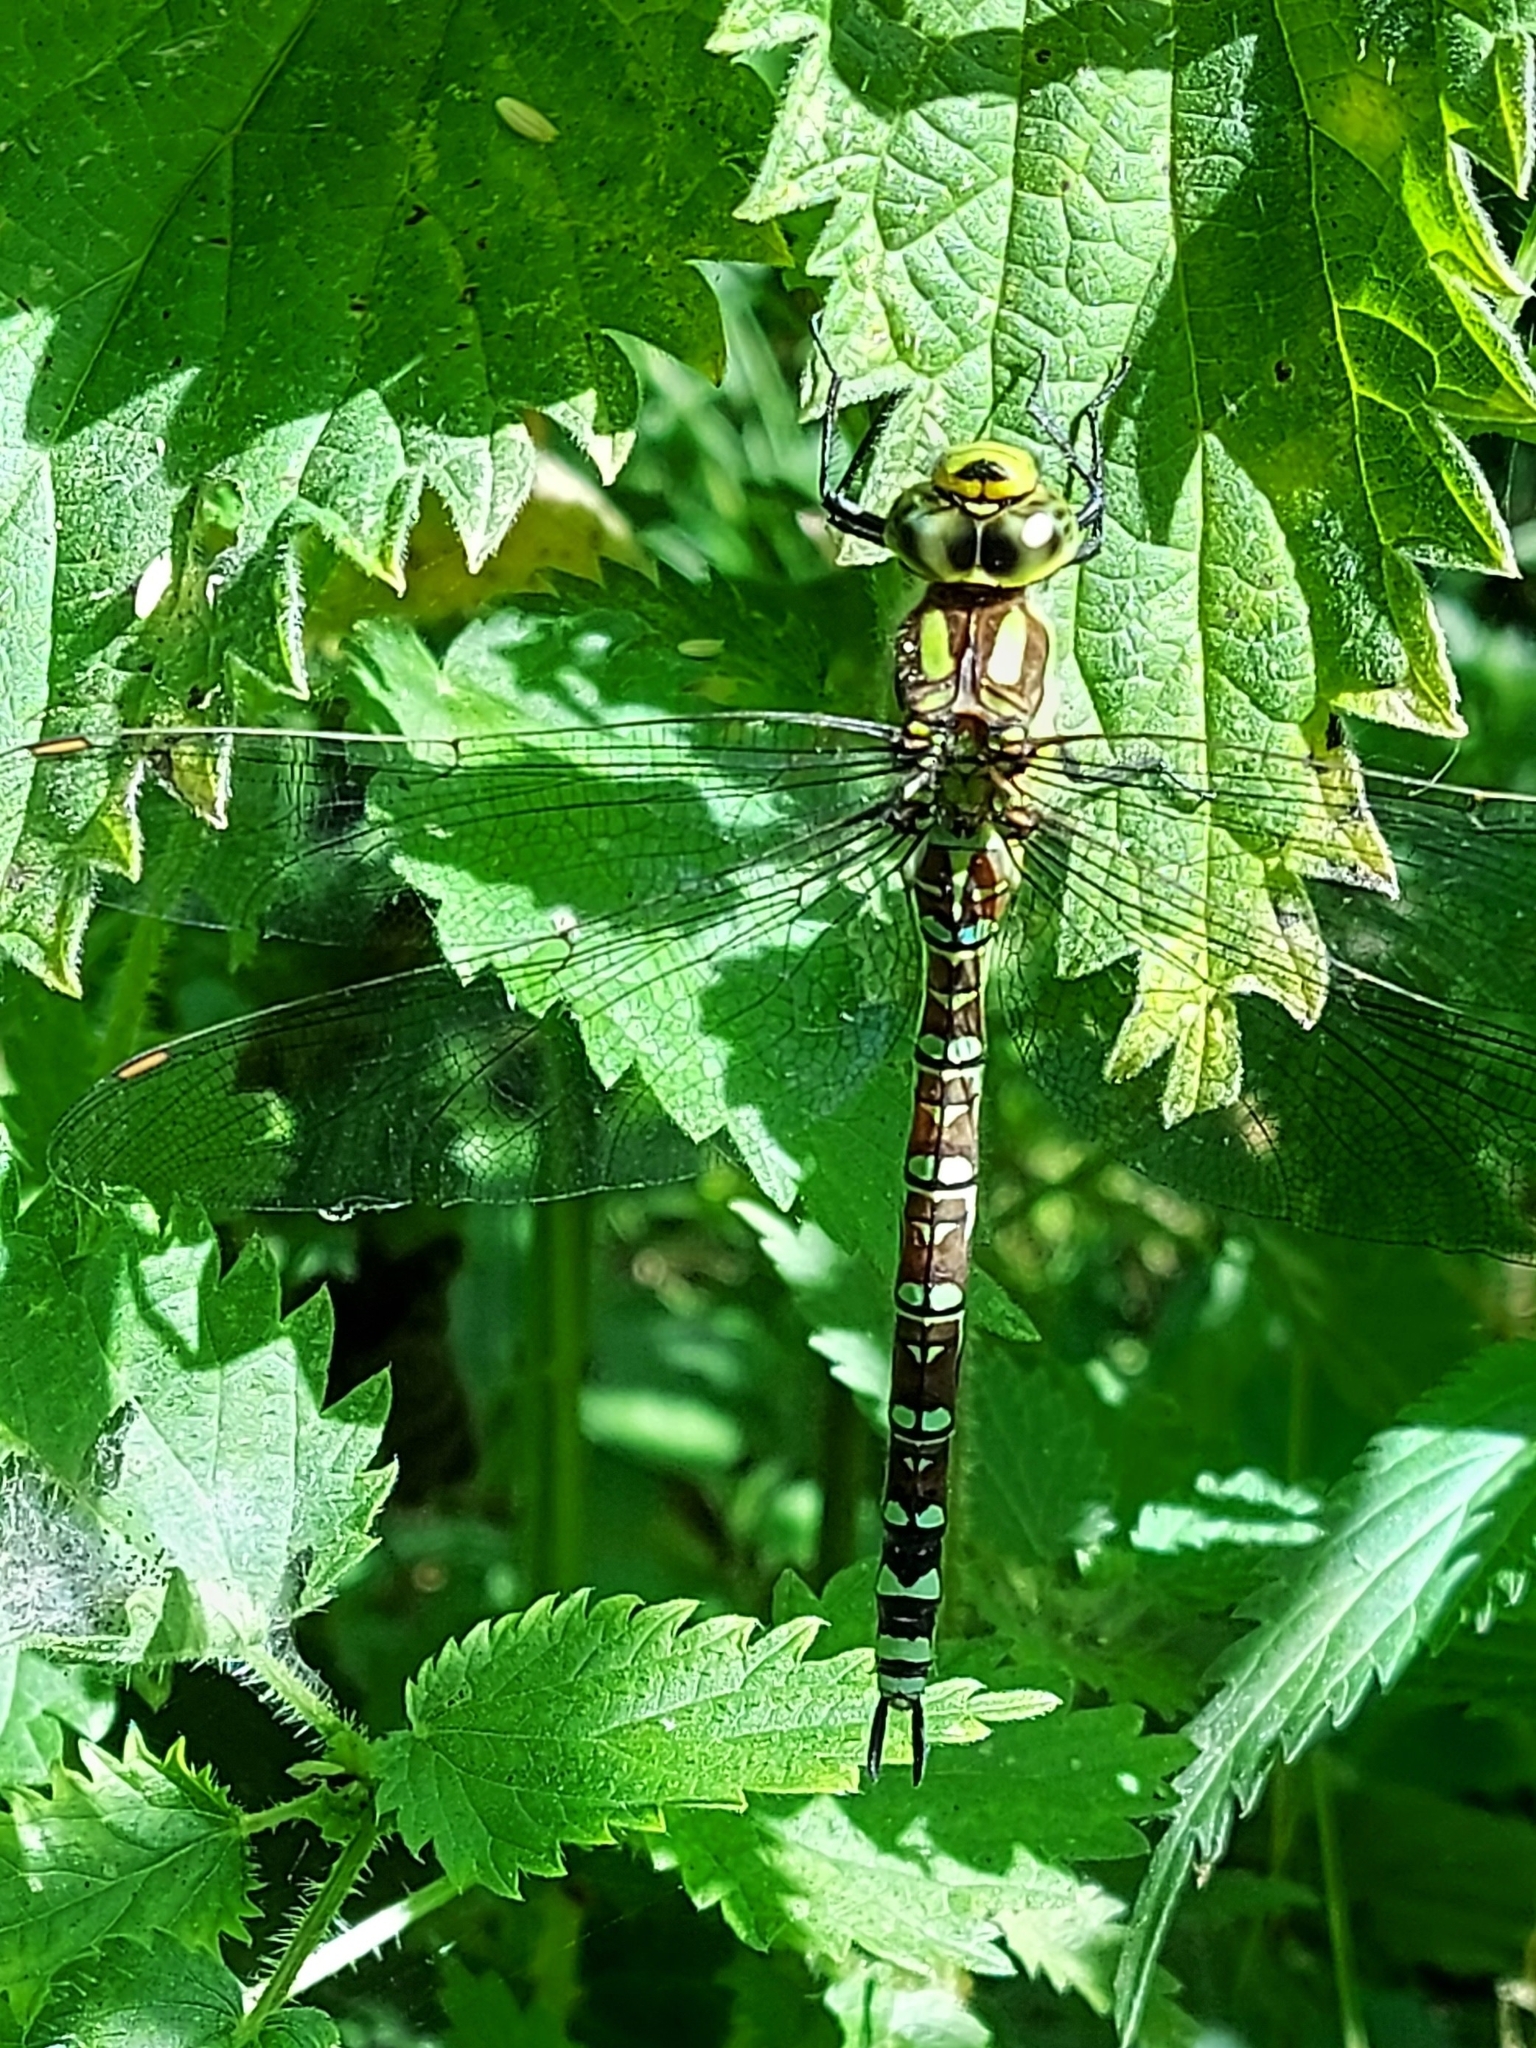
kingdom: Animalia
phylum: Arthropoda
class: Insecta
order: Odonata
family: Aeshnidae
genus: Aeshna
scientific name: Aeshna cyanea
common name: Southern hawker
